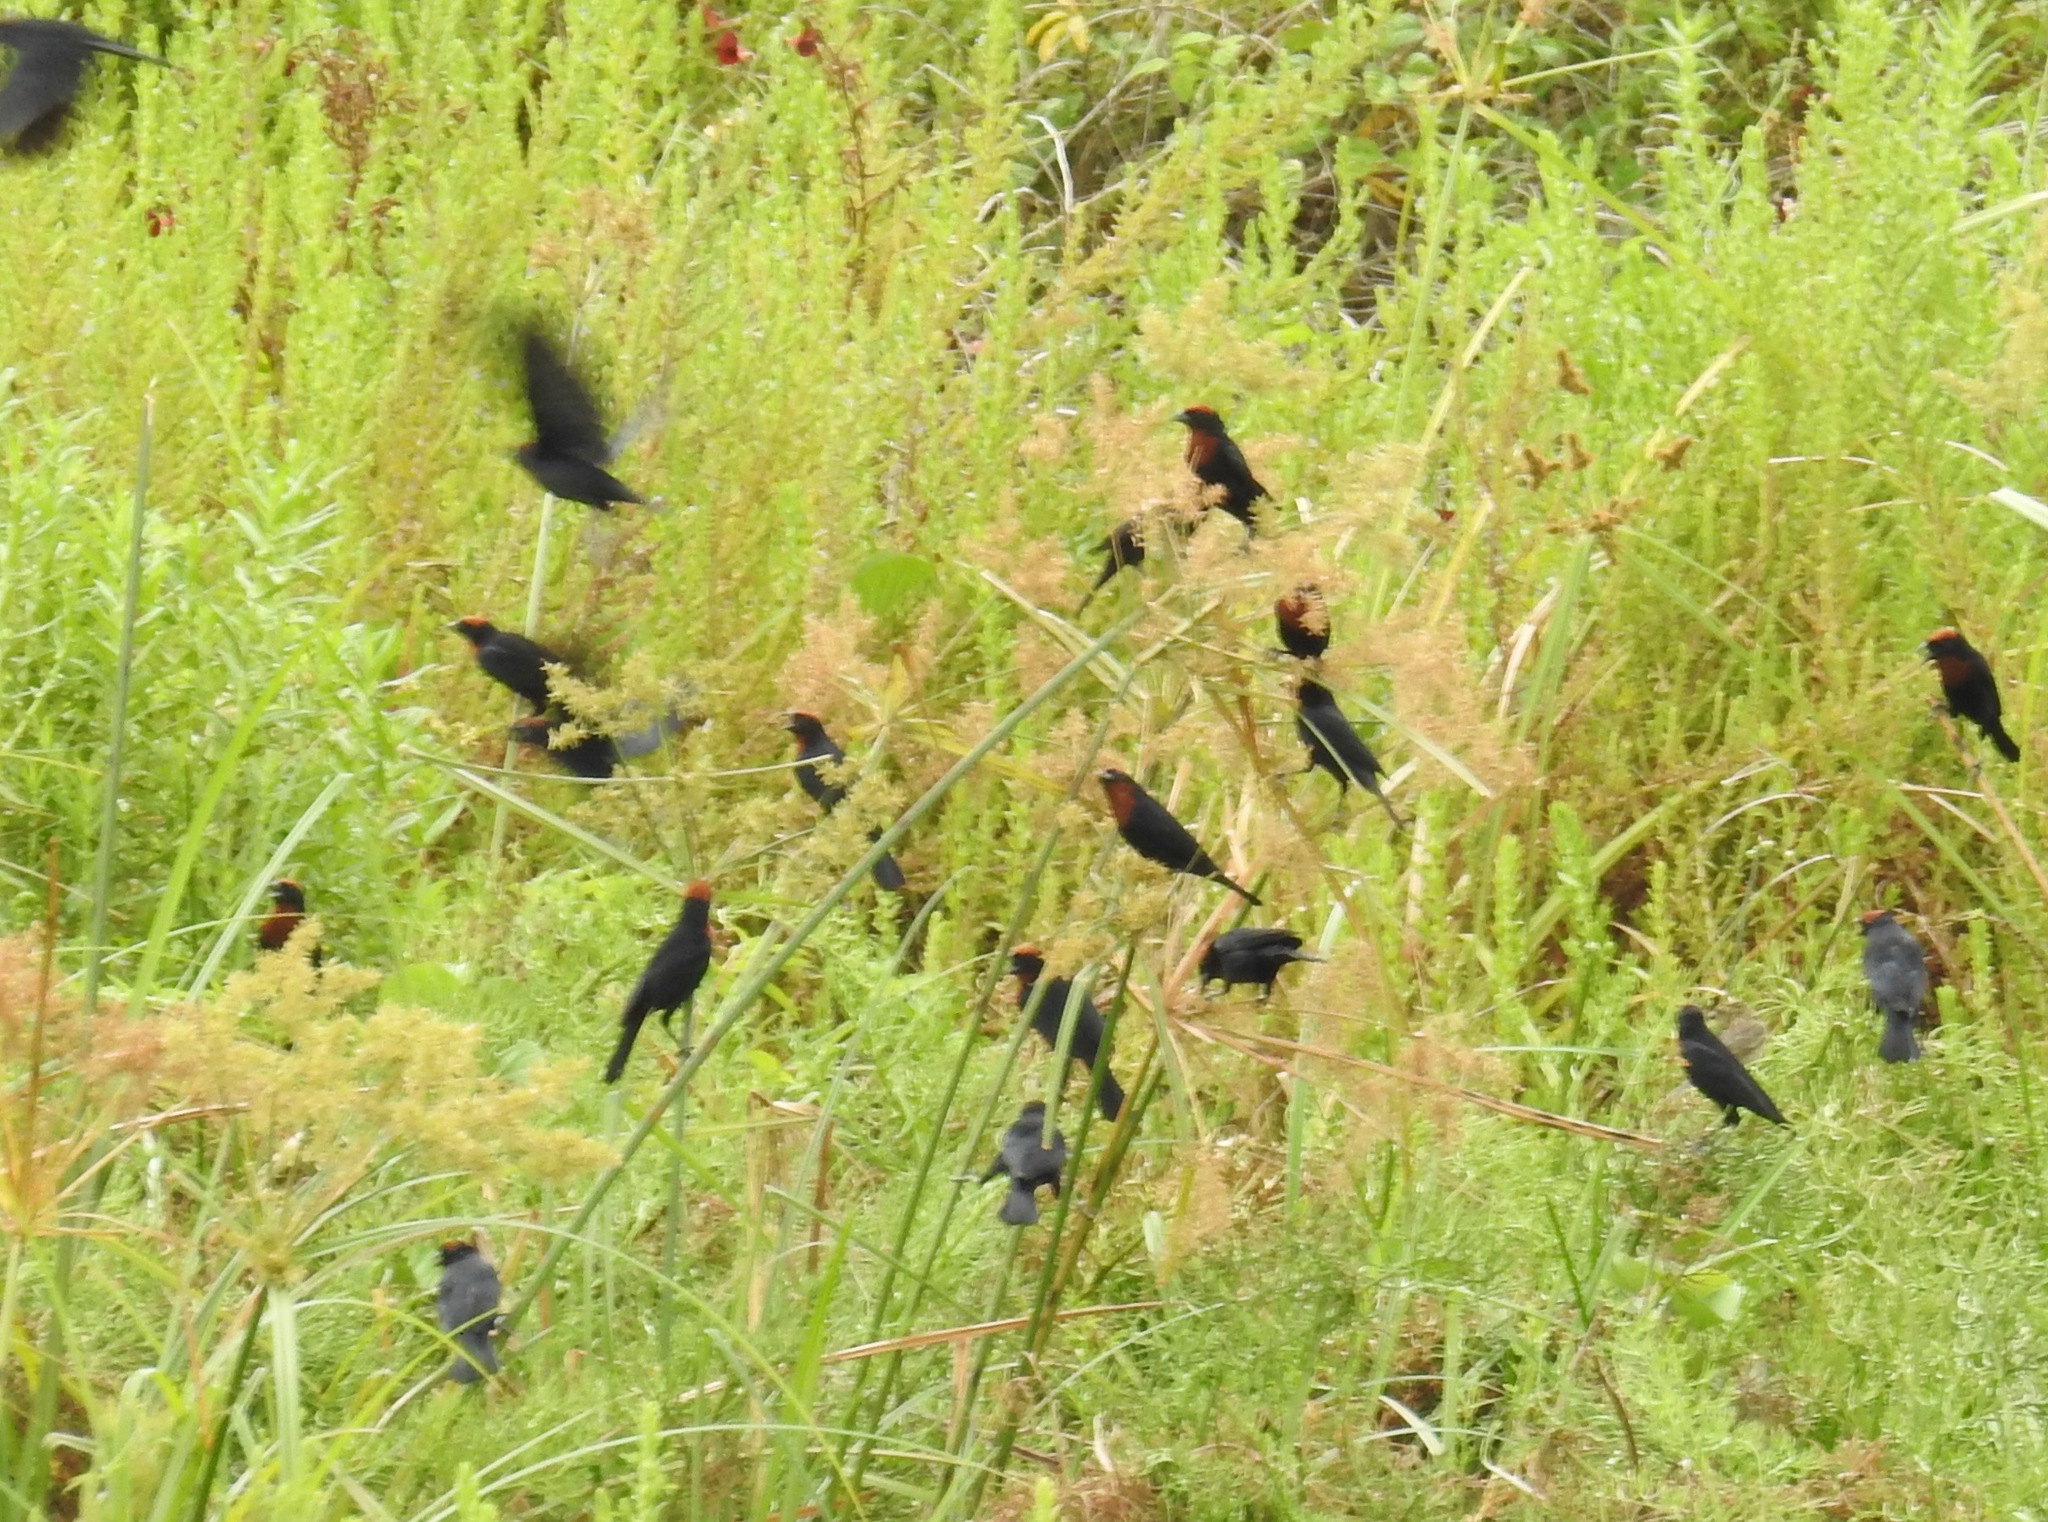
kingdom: Animalia
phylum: Chordata
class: Aves
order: Passeriformes
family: Icteridae
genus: Chrysomus
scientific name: Chrysomus ruficapillus
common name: Chestnut-capped blackbird
